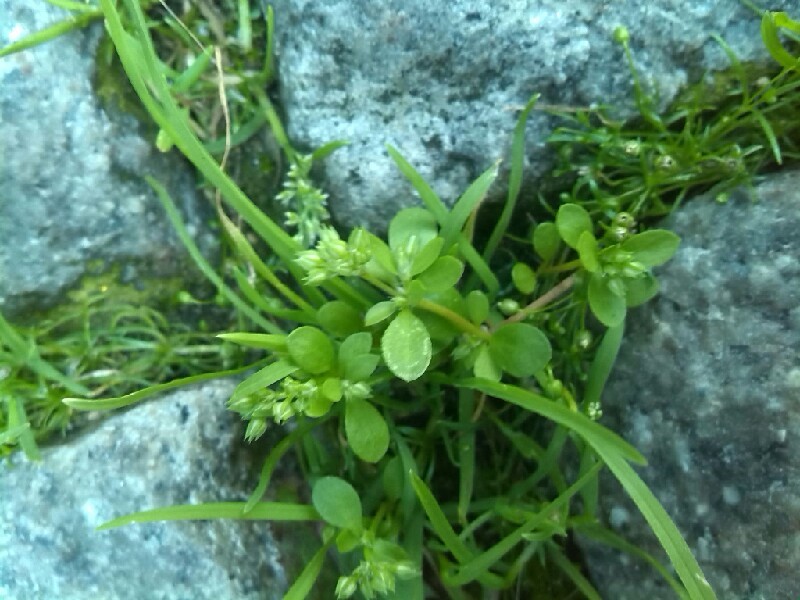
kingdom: Plantae
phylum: Tracheophyta
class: Magnoliopsida
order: Caryophyllales
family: Caryophyllaceae
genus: Polycarpon
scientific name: Polycarpon tetraphyllum
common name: Four-leaved all-seed
